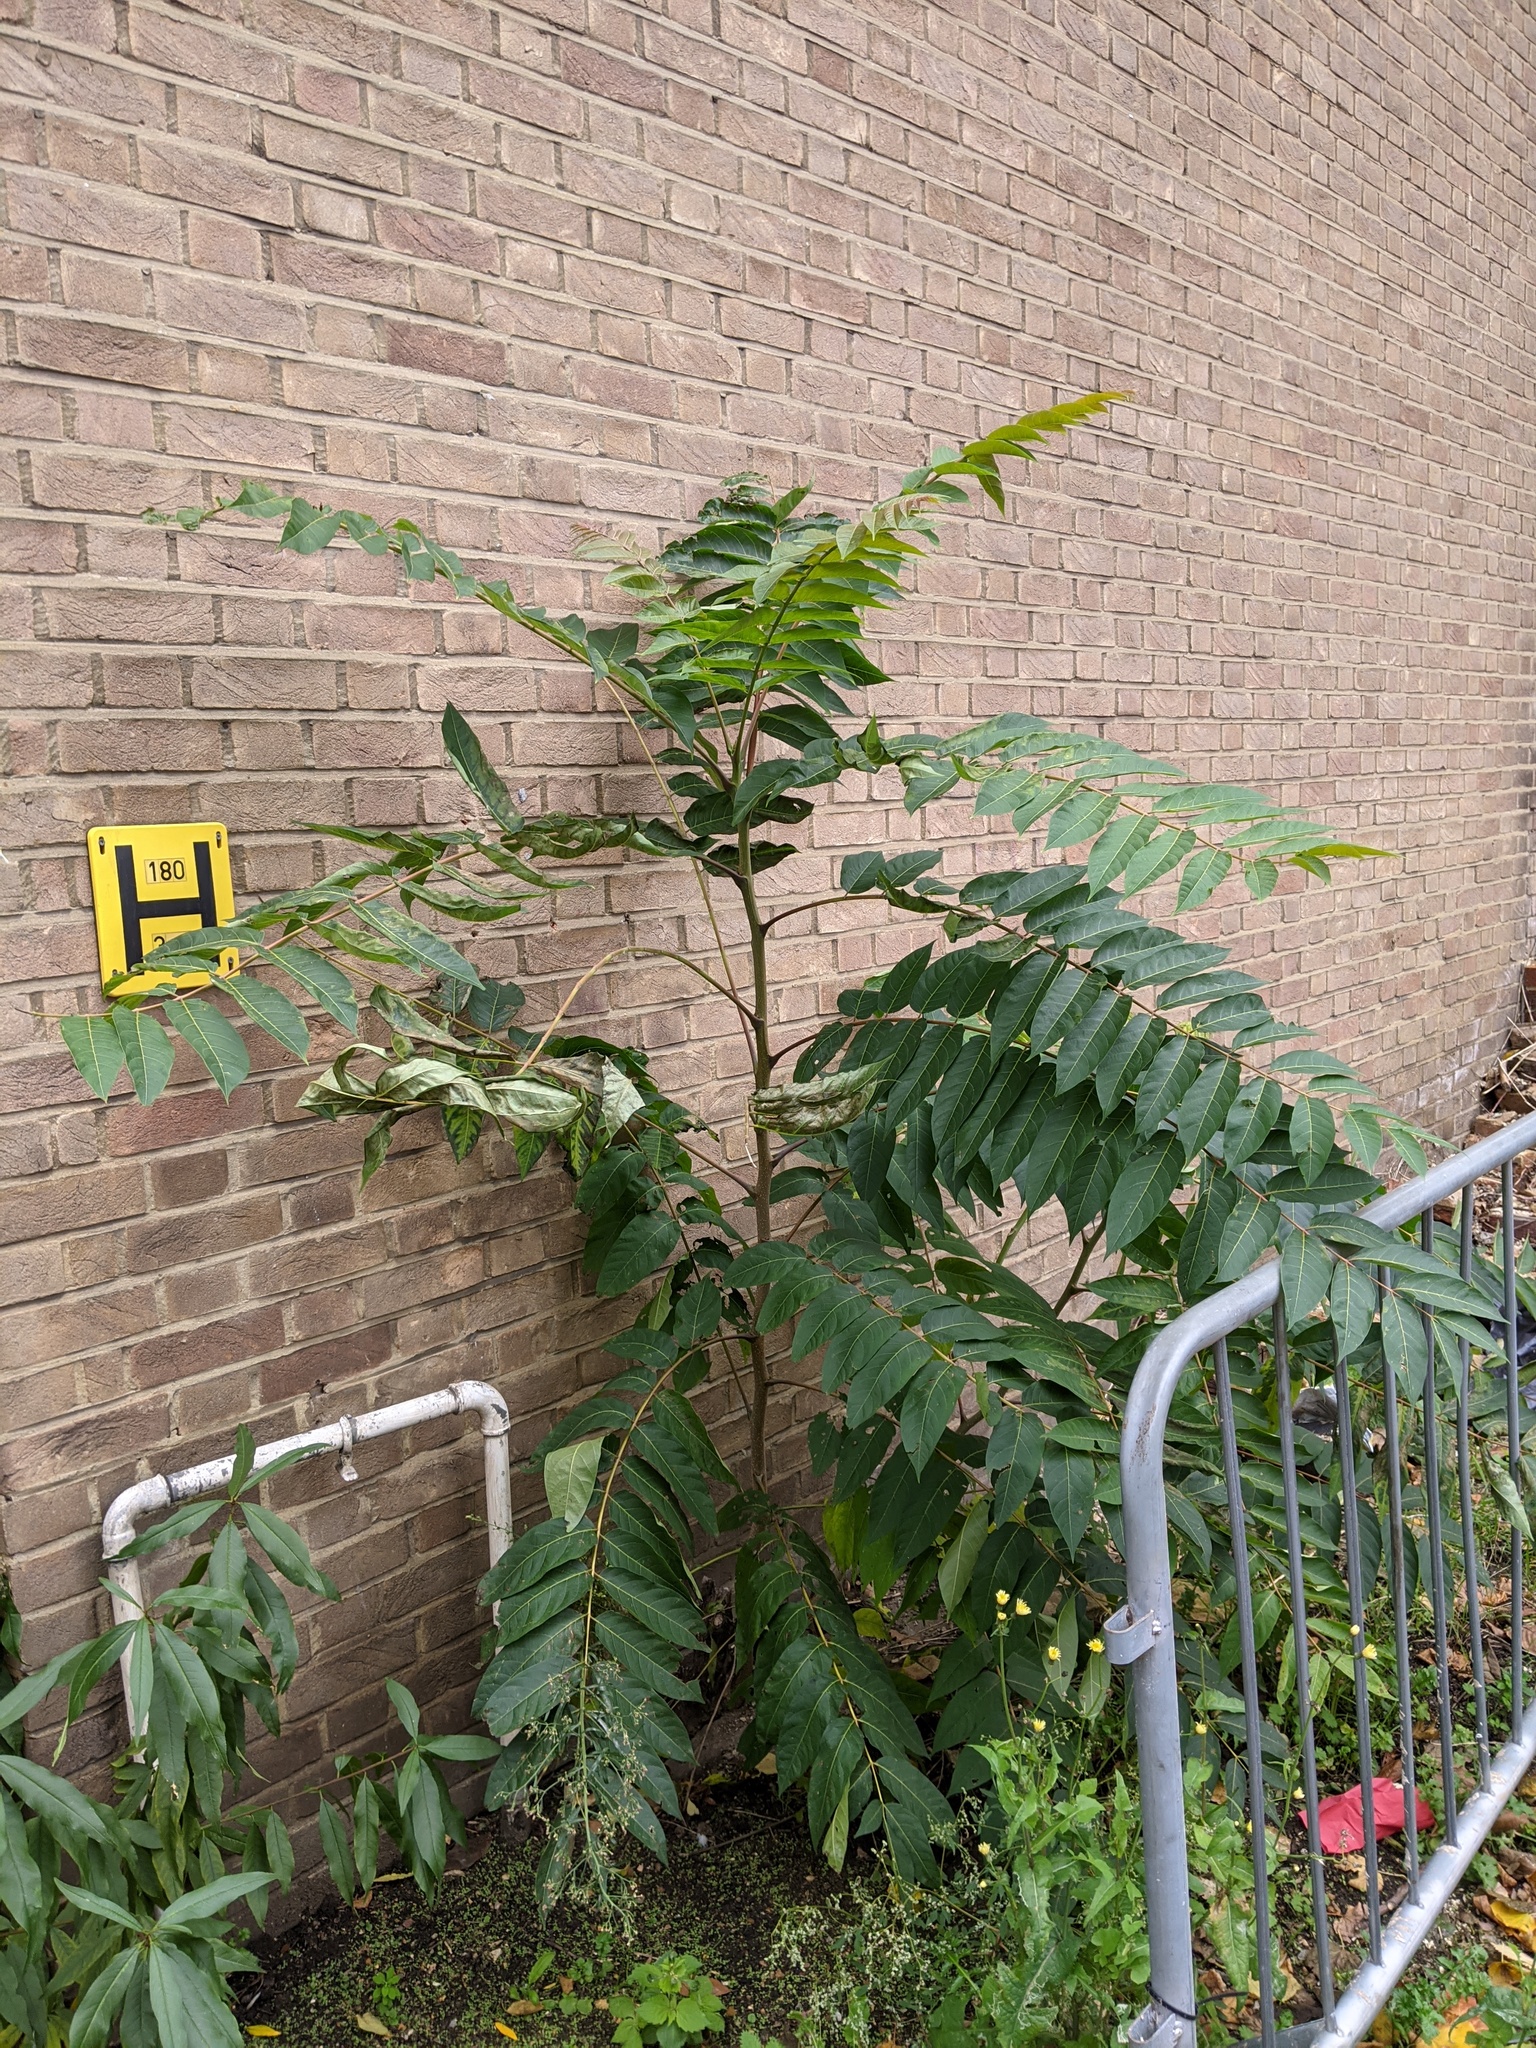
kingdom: Plantae
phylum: Tracheophyta
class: Magnoliopsida
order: Sapindales
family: Simaroubaceae
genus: Ailanthus
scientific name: Ailanthus altissima
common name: Tree-of-heaven
